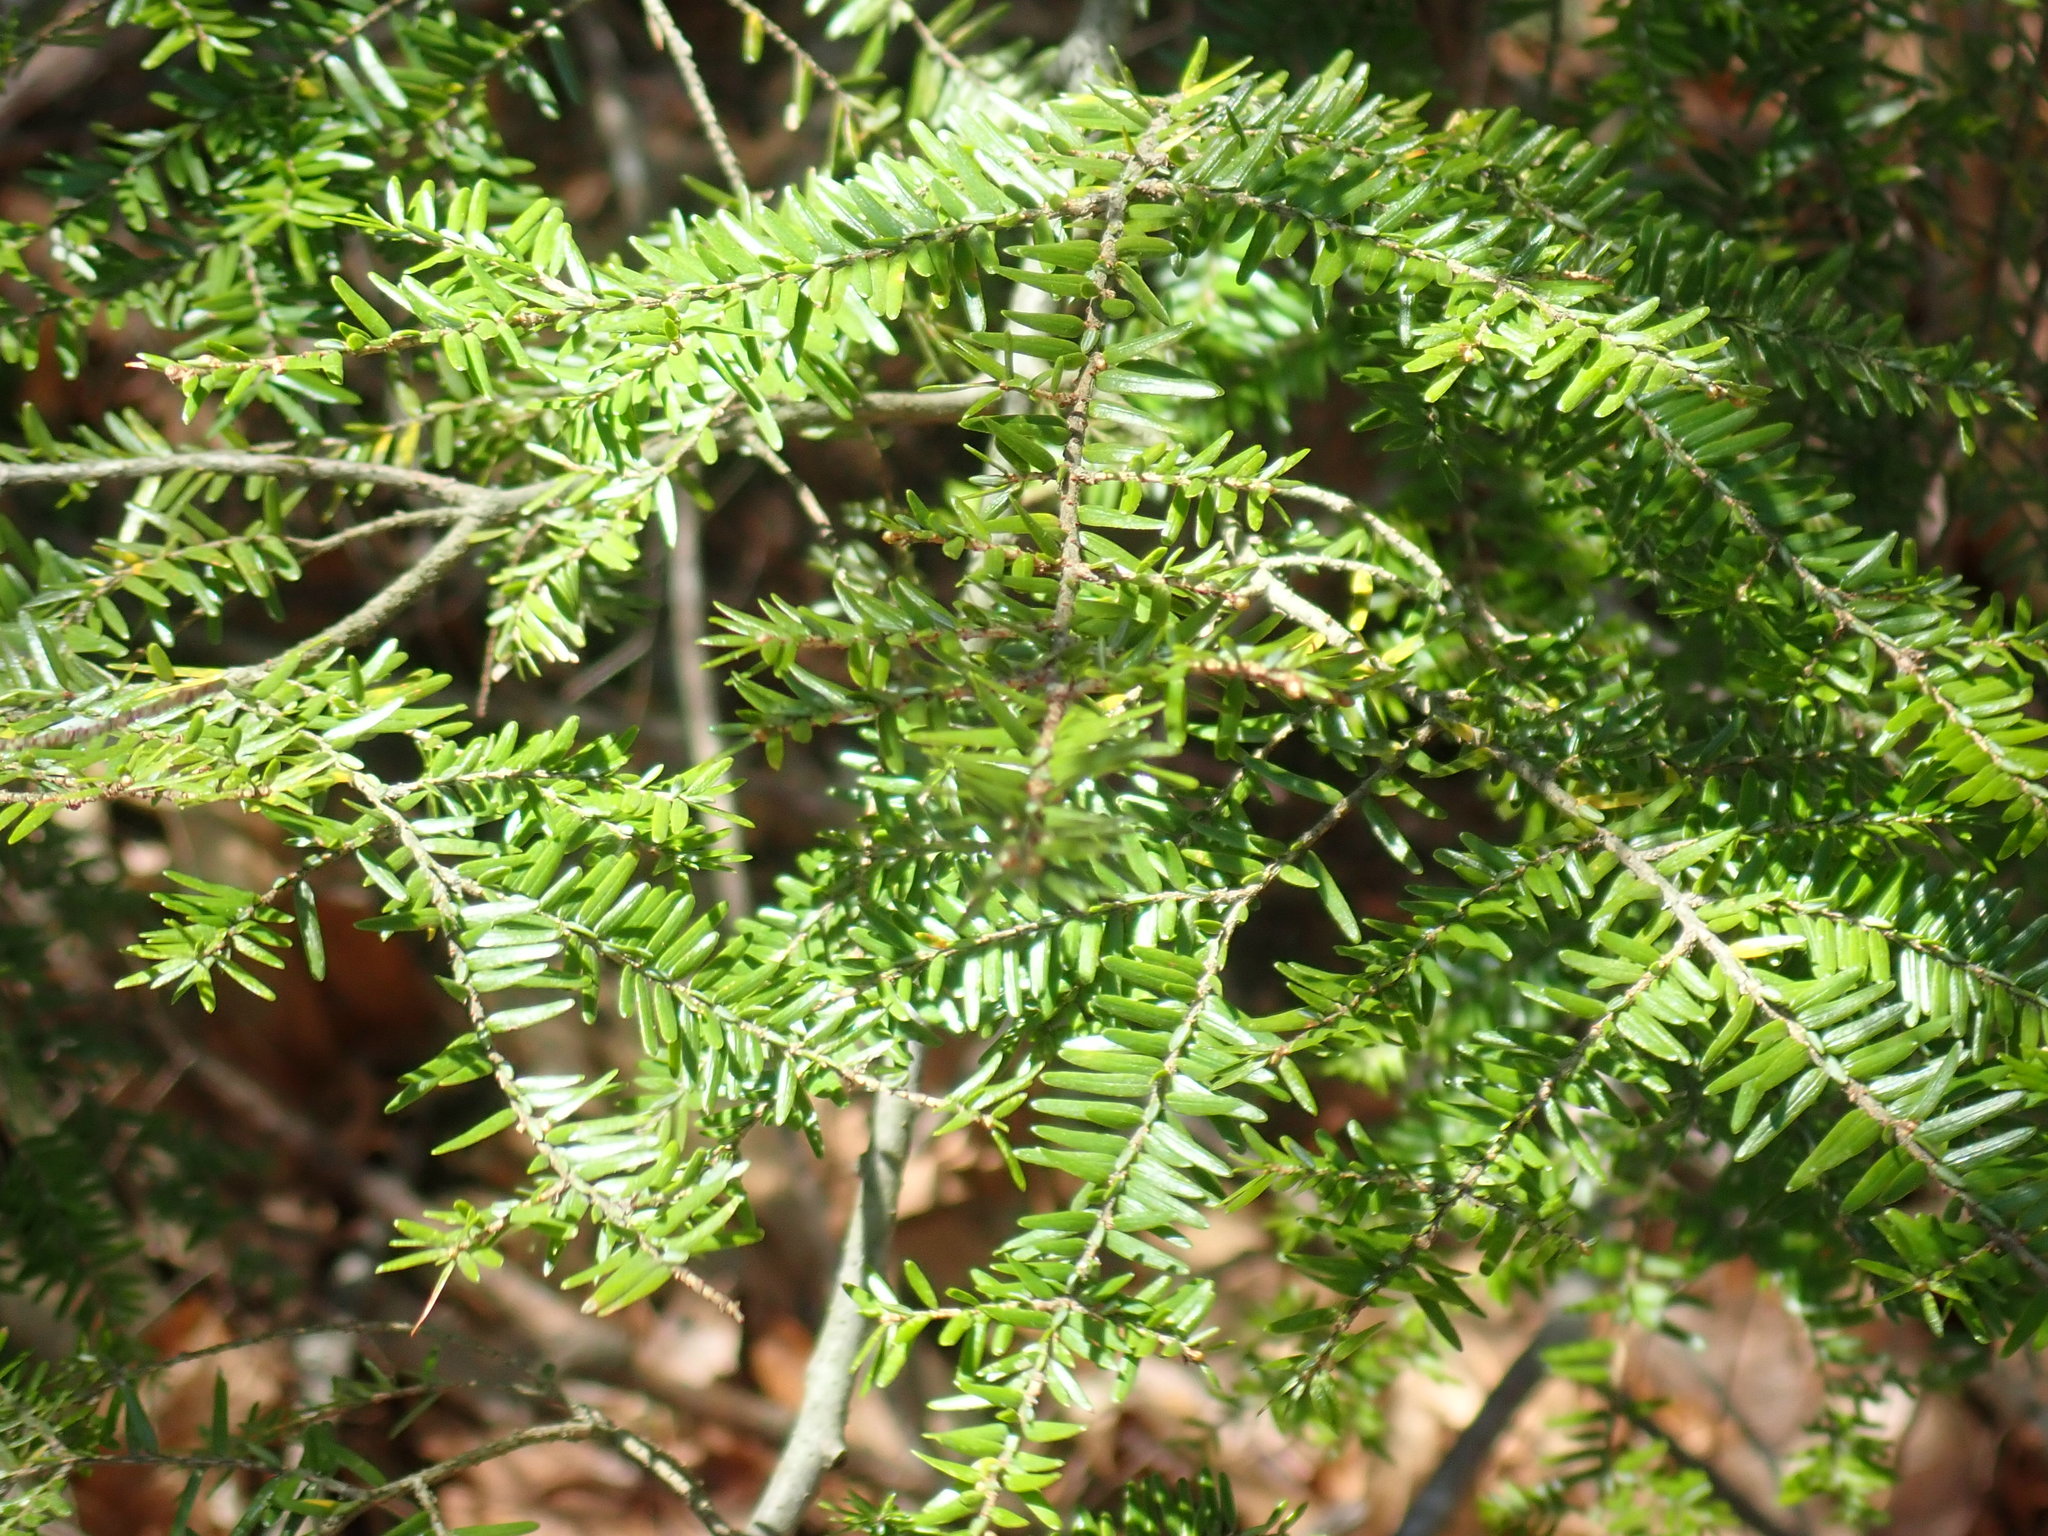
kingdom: Plantae
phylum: Tracheophyta
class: Pinopsida
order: Pinales
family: Pinaceae
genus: Tsuga
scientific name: Tsuga canadensis
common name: Eastern hemlock
